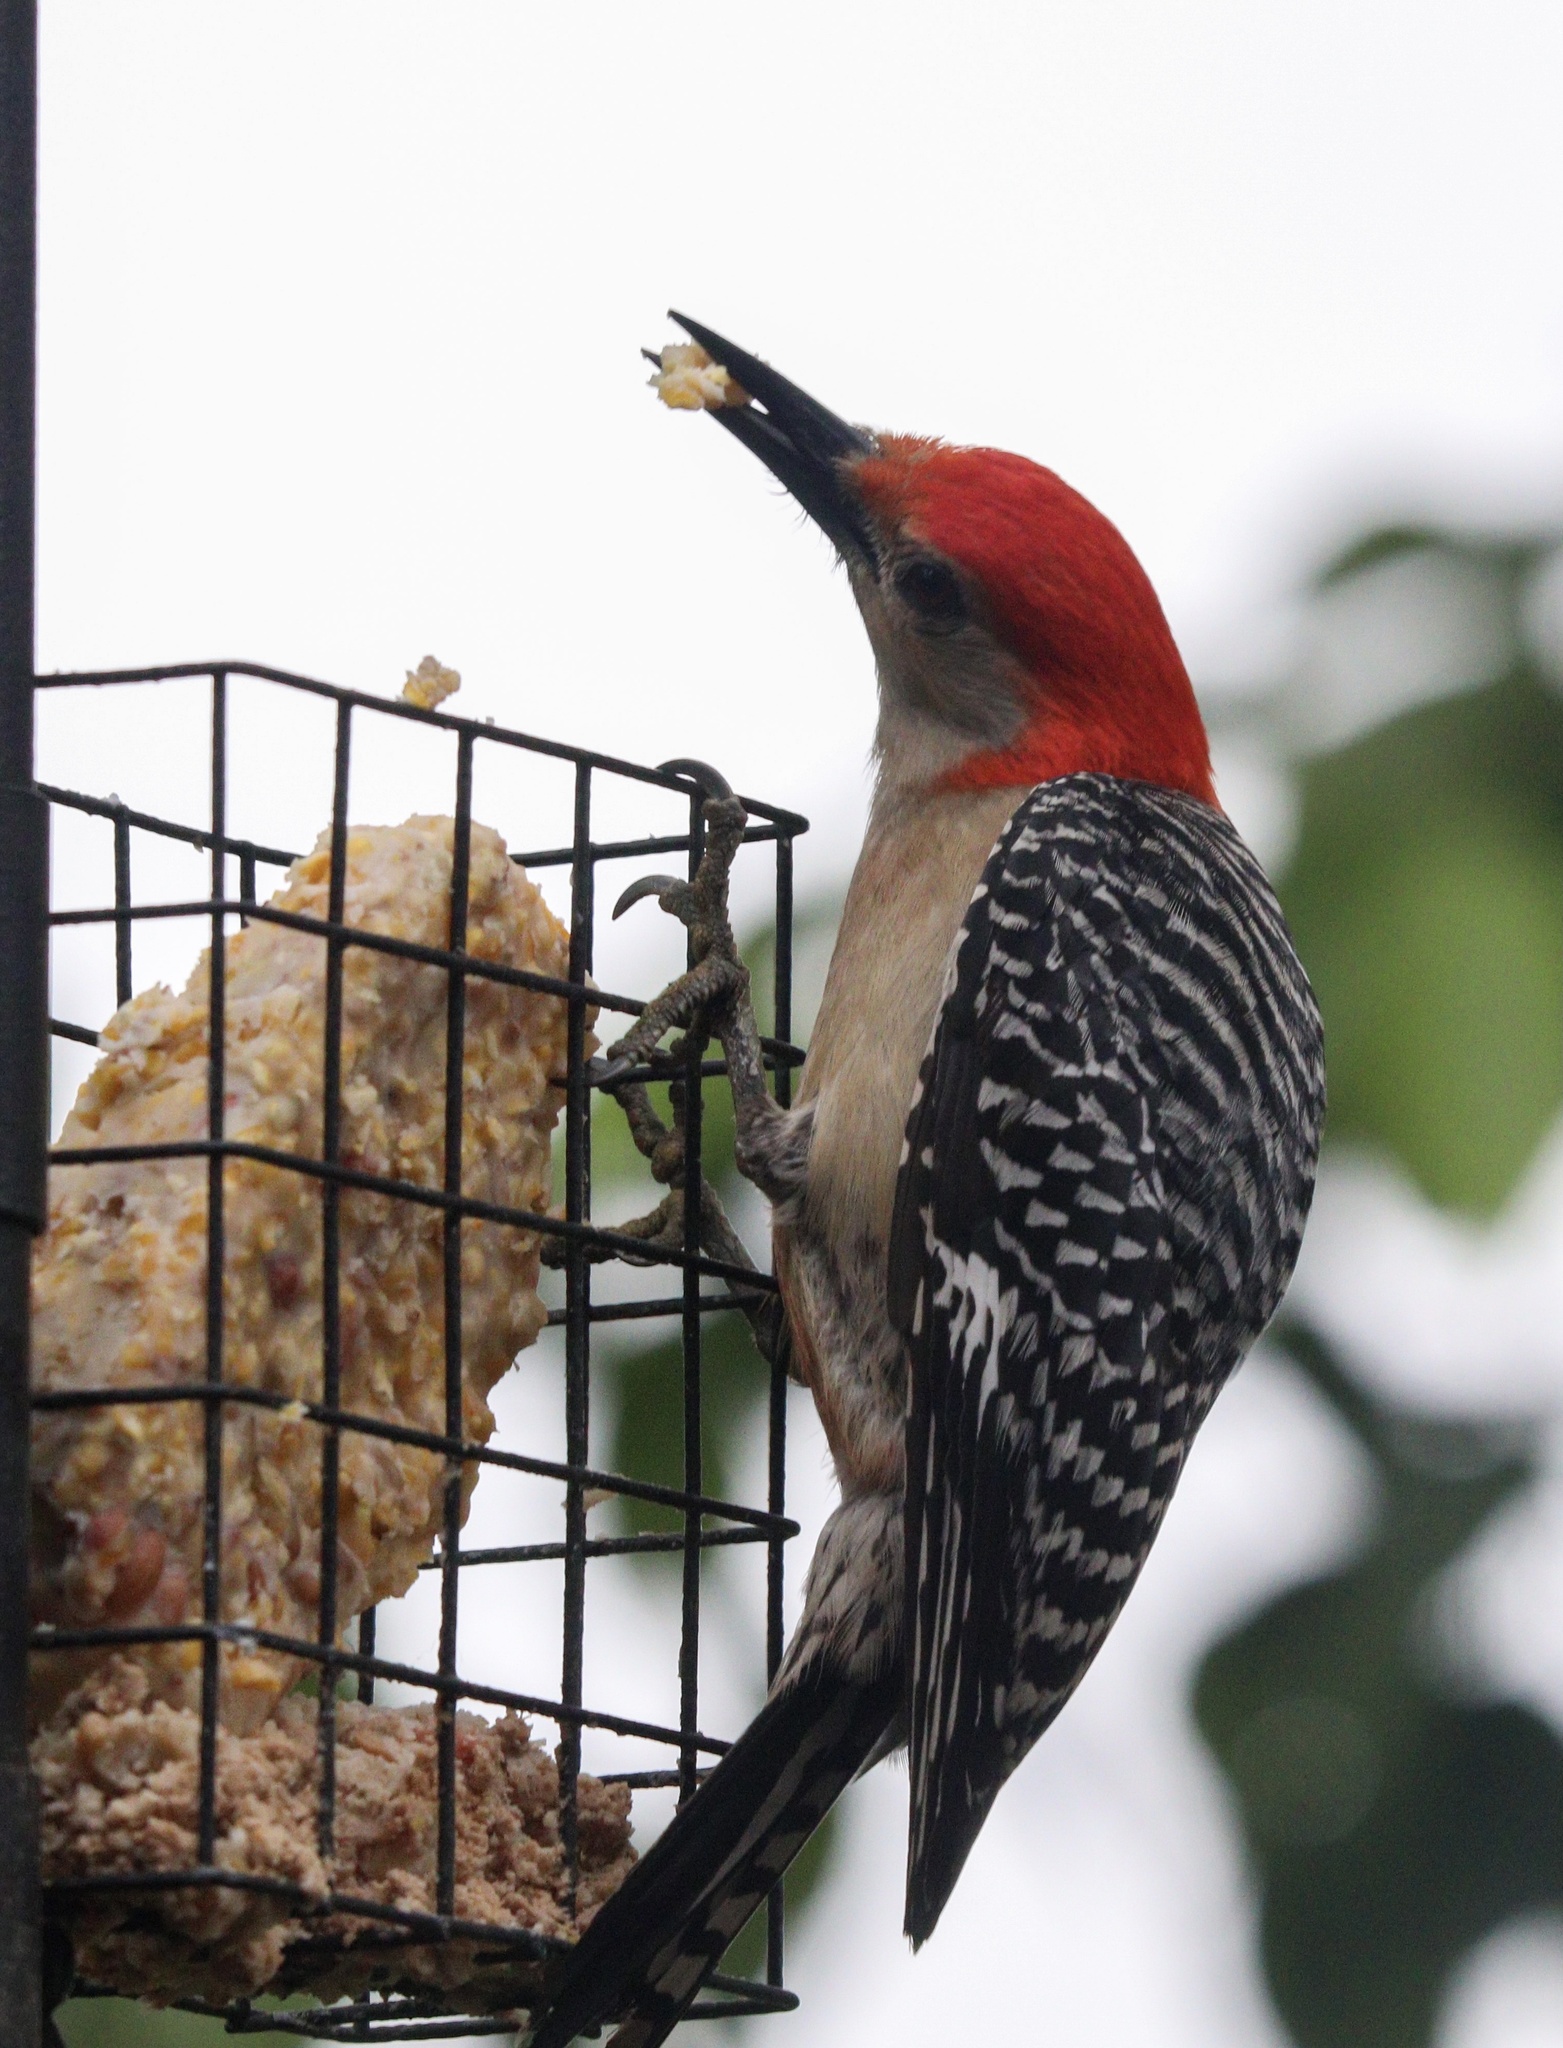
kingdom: Animalia
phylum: Chordata
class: Aves
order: Piciformes
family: Picidae
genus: Melanerpes
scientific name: Melanerpes carolinus
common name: Red-bellied woodpecker
